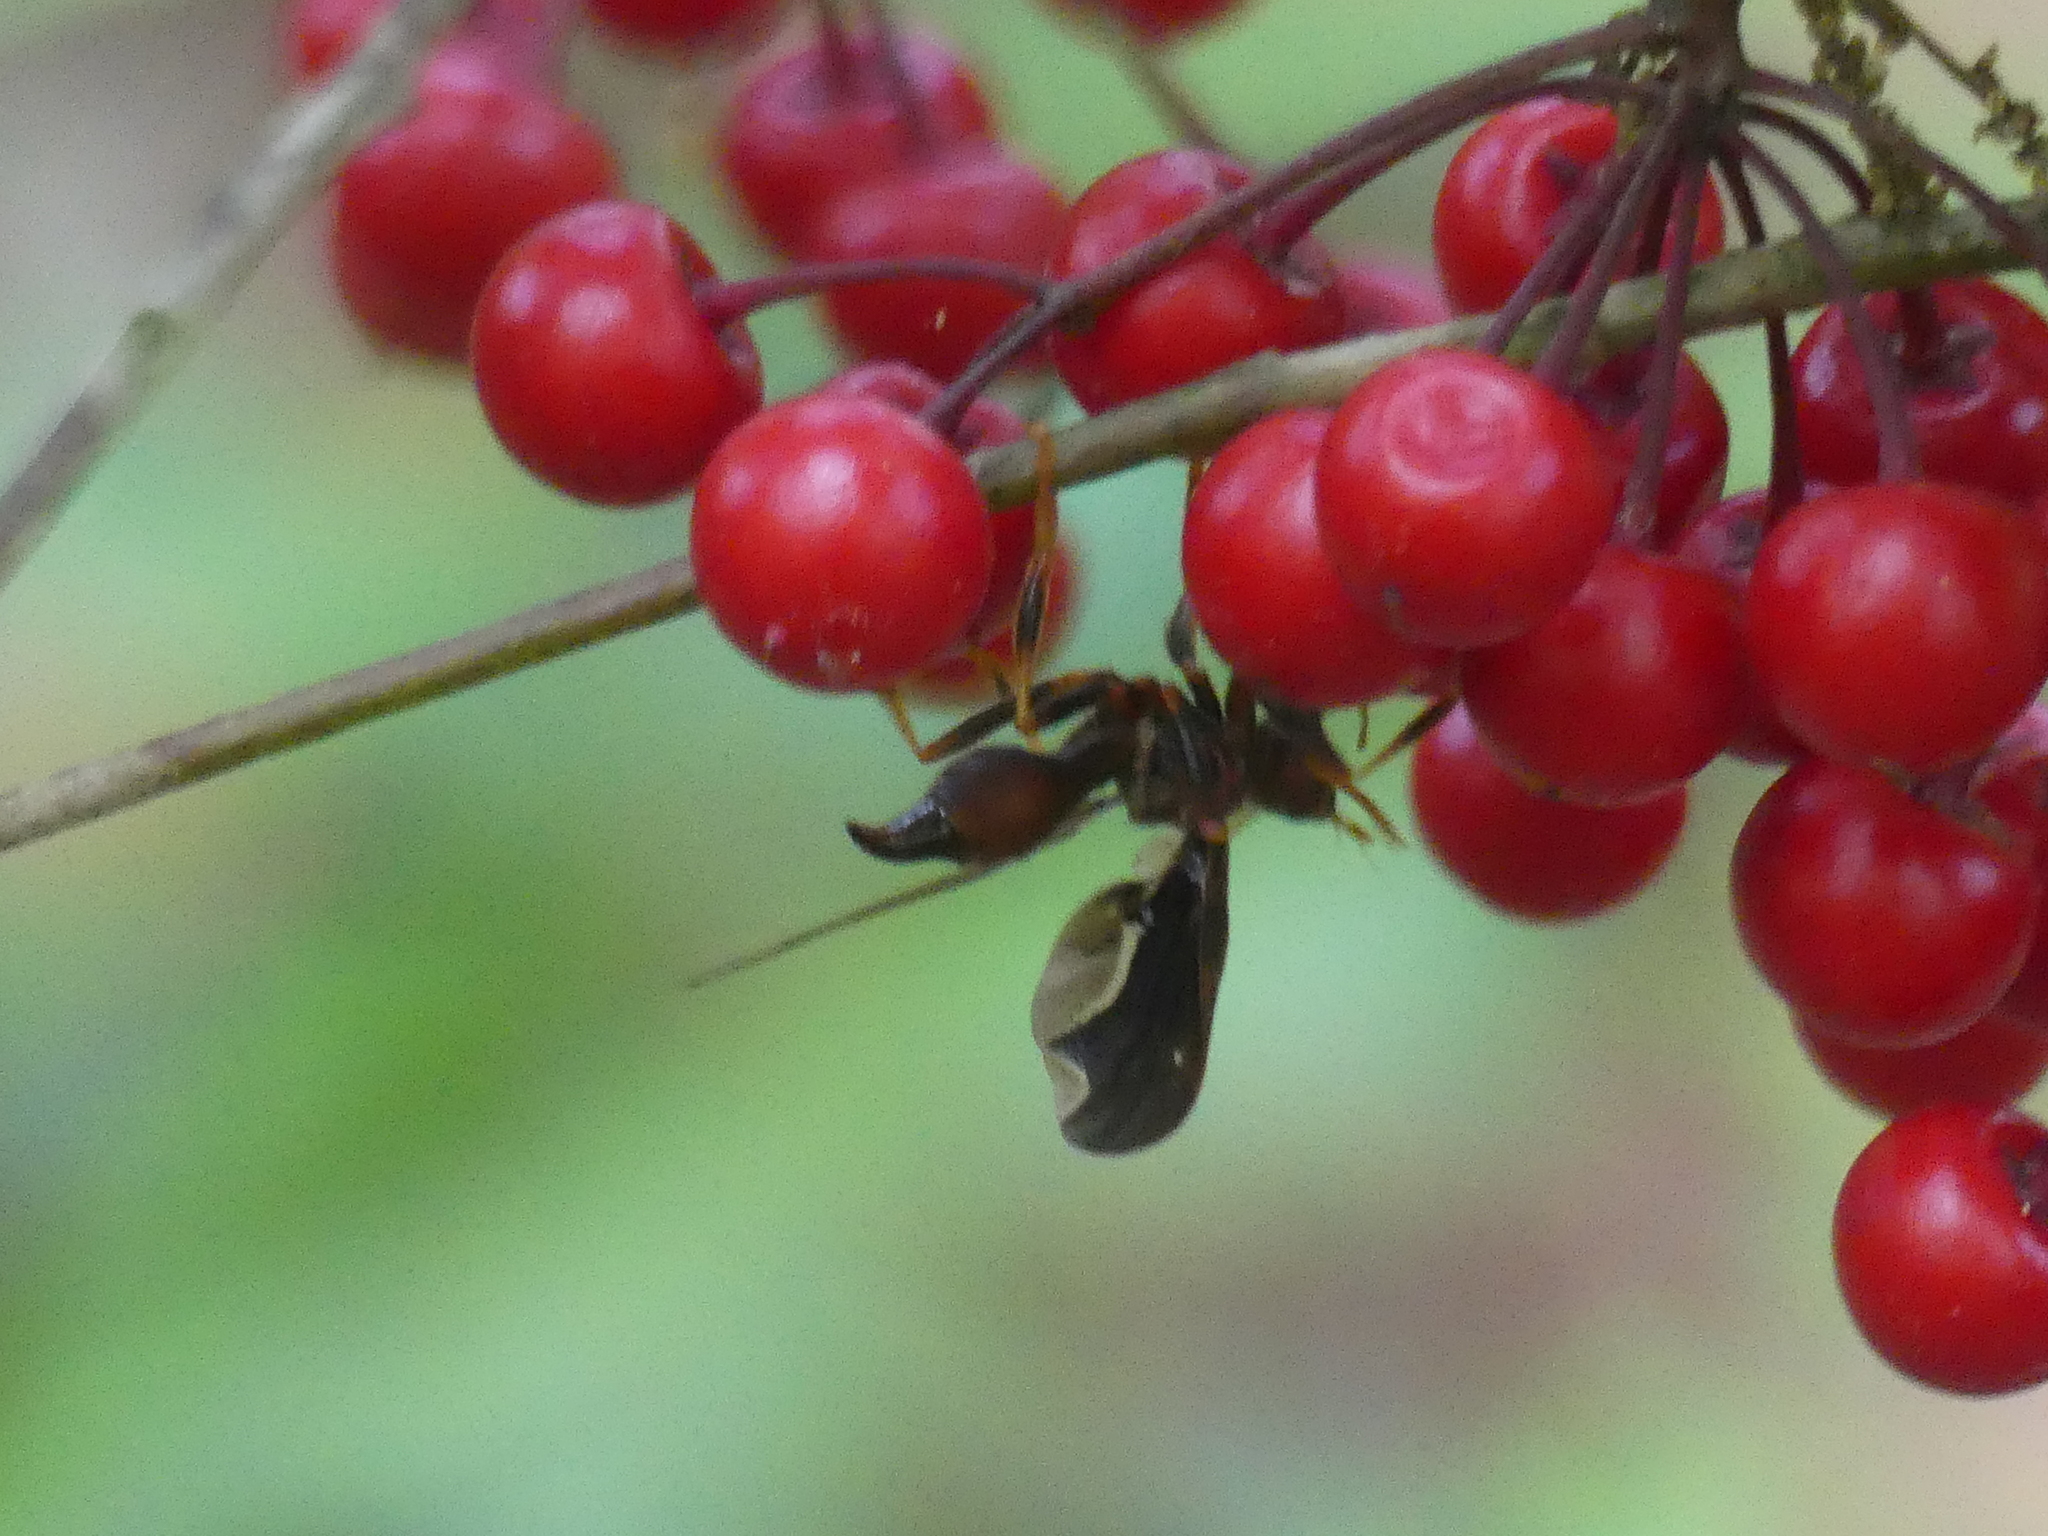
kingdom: Animalia
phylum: Arthropoda
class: Insecta
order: Diptera
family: Pyrgotidae
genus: Pyrgota
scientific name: Pyrgota undata
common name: Waved light fly
